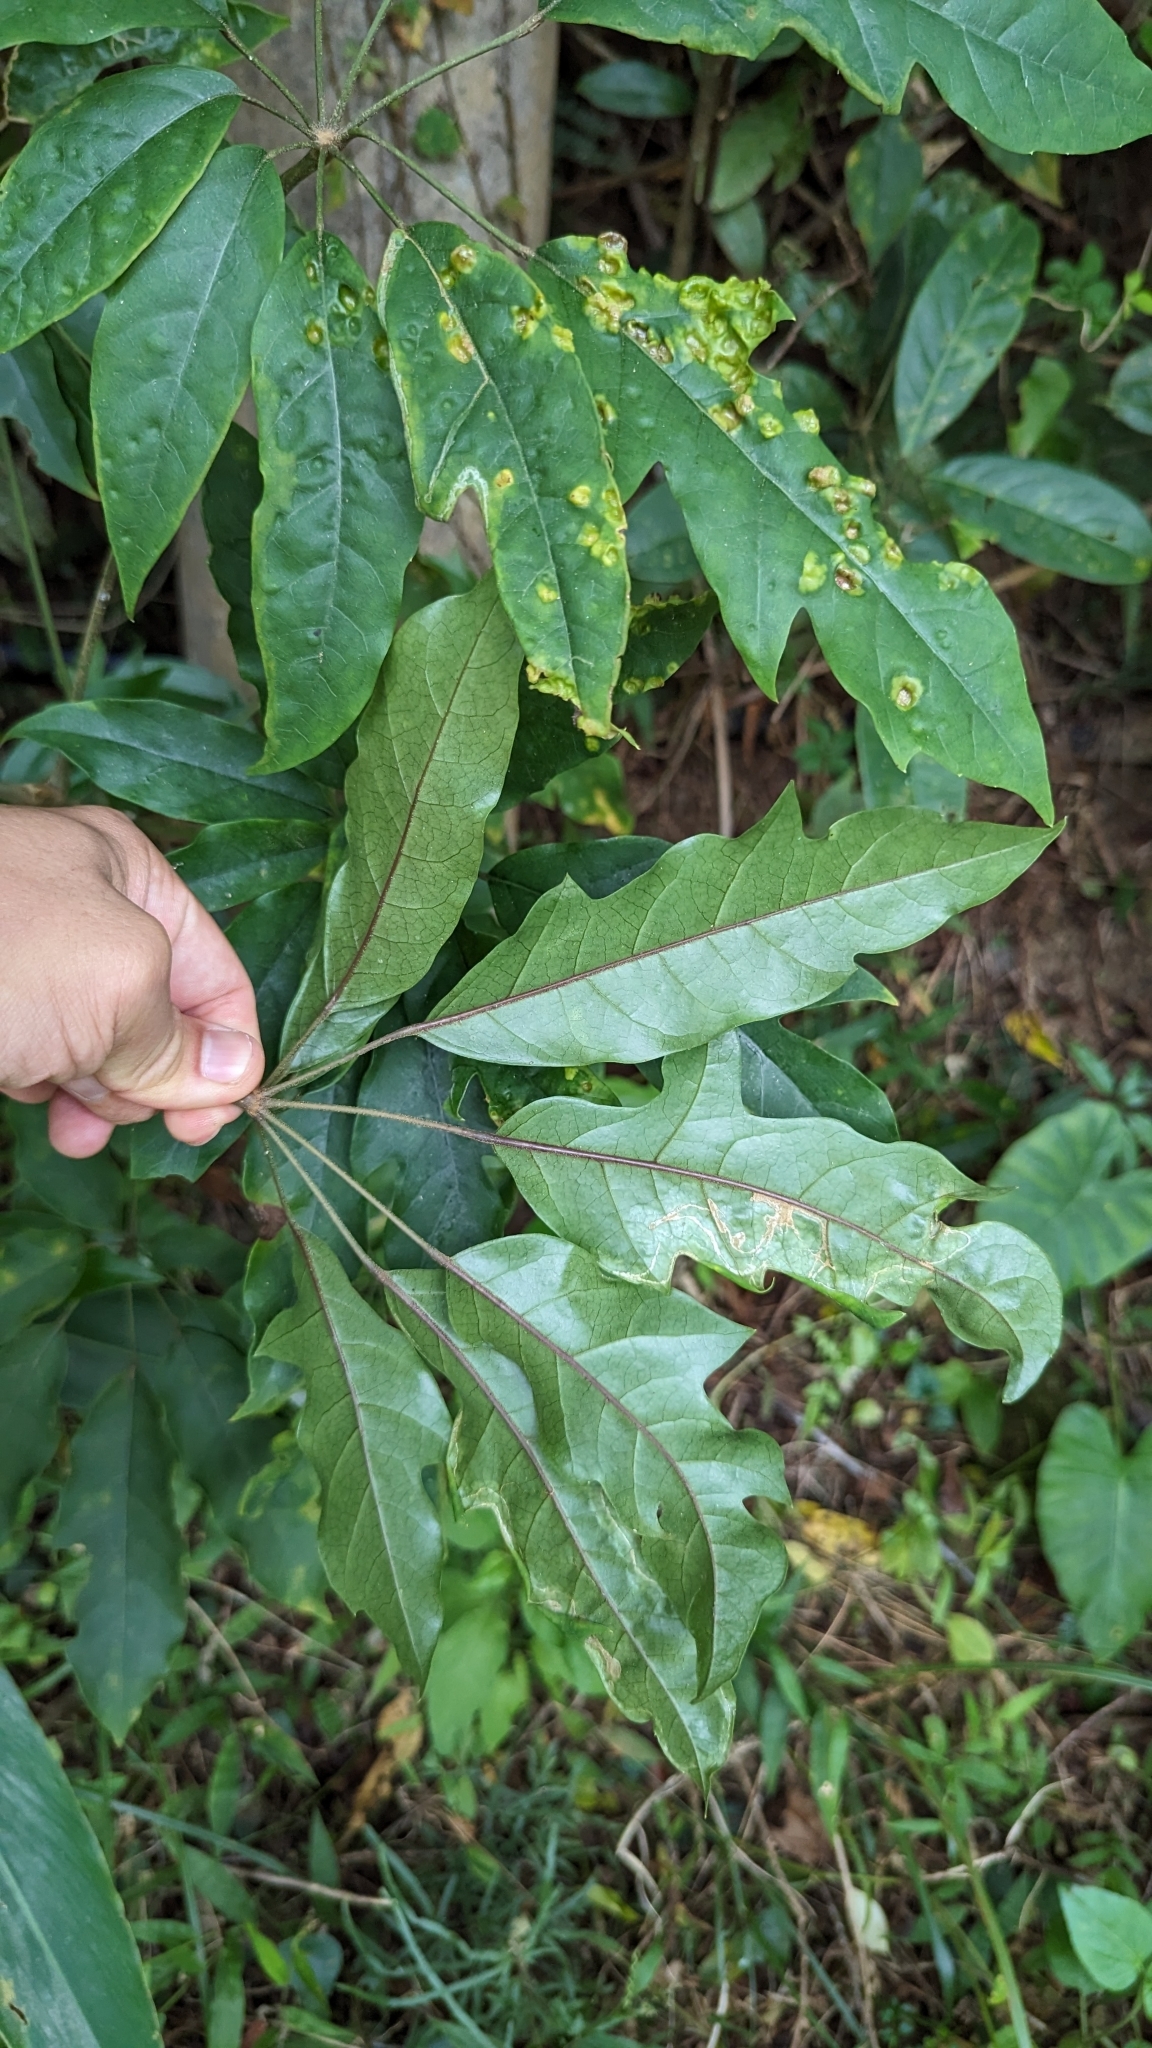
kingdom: Plantae
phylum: Tracheophyta
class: Magnoliopsida
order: Apiales
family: Araliaceae
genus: Heptapleurum
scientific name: Heptapleurum heptaphyllum
